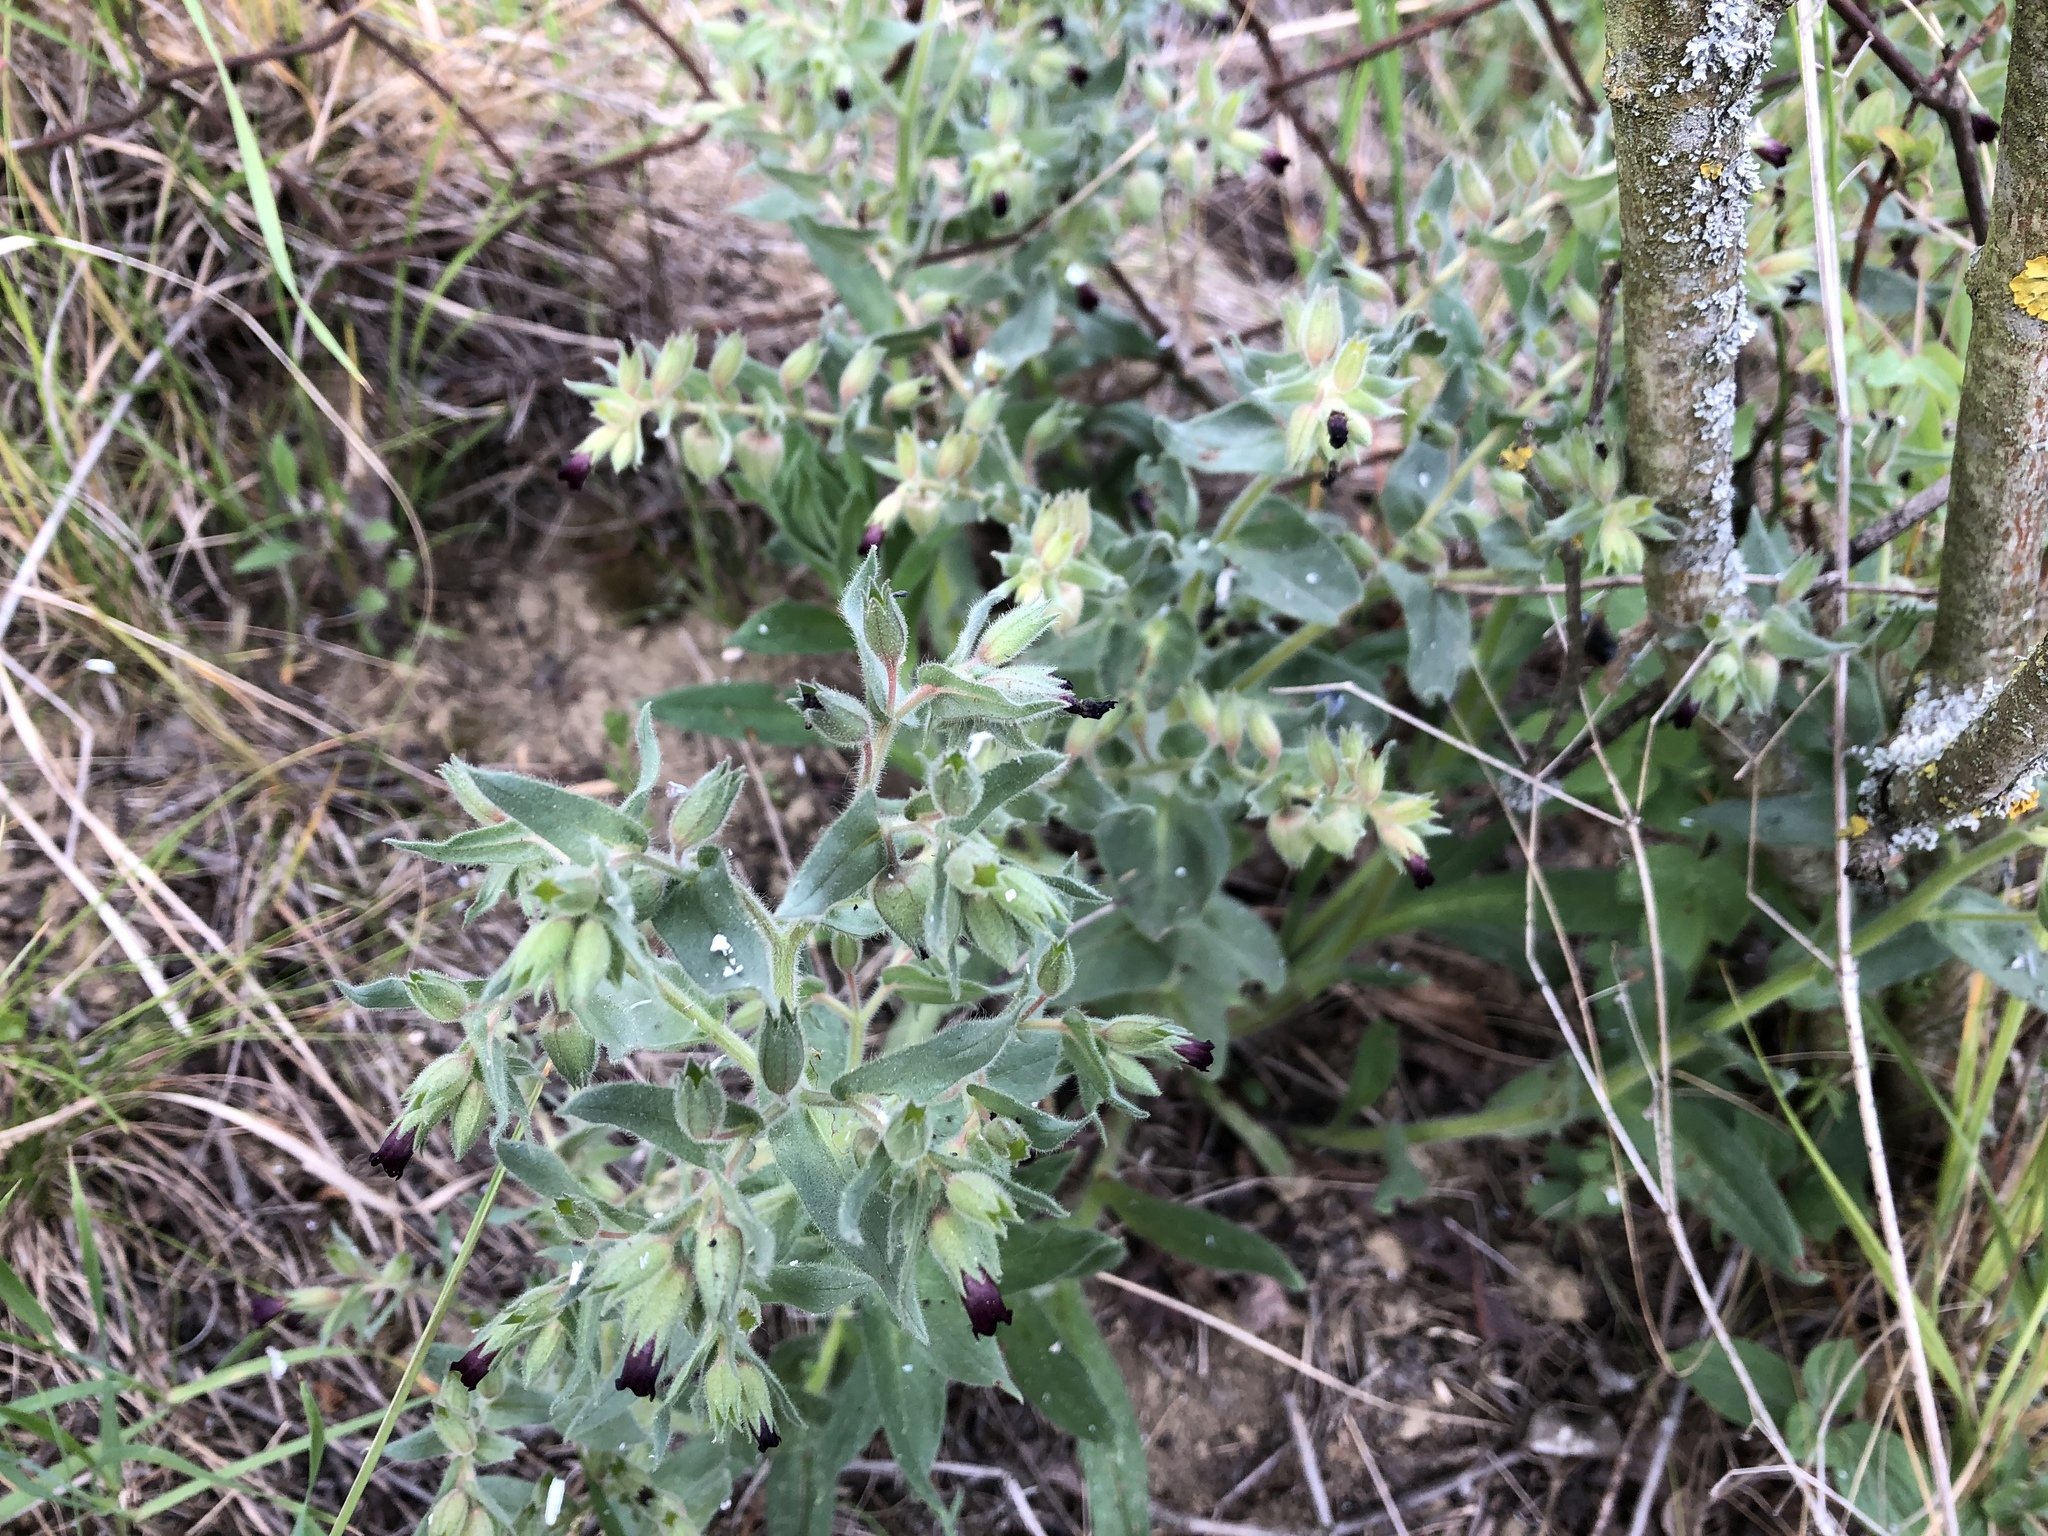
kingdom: Plantae
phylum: Tracheophyta
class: Magnoliopsida
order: Boraginales
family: Boraginaceae
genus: Nonea
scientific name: Nonea pulla
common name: Brown nonea
